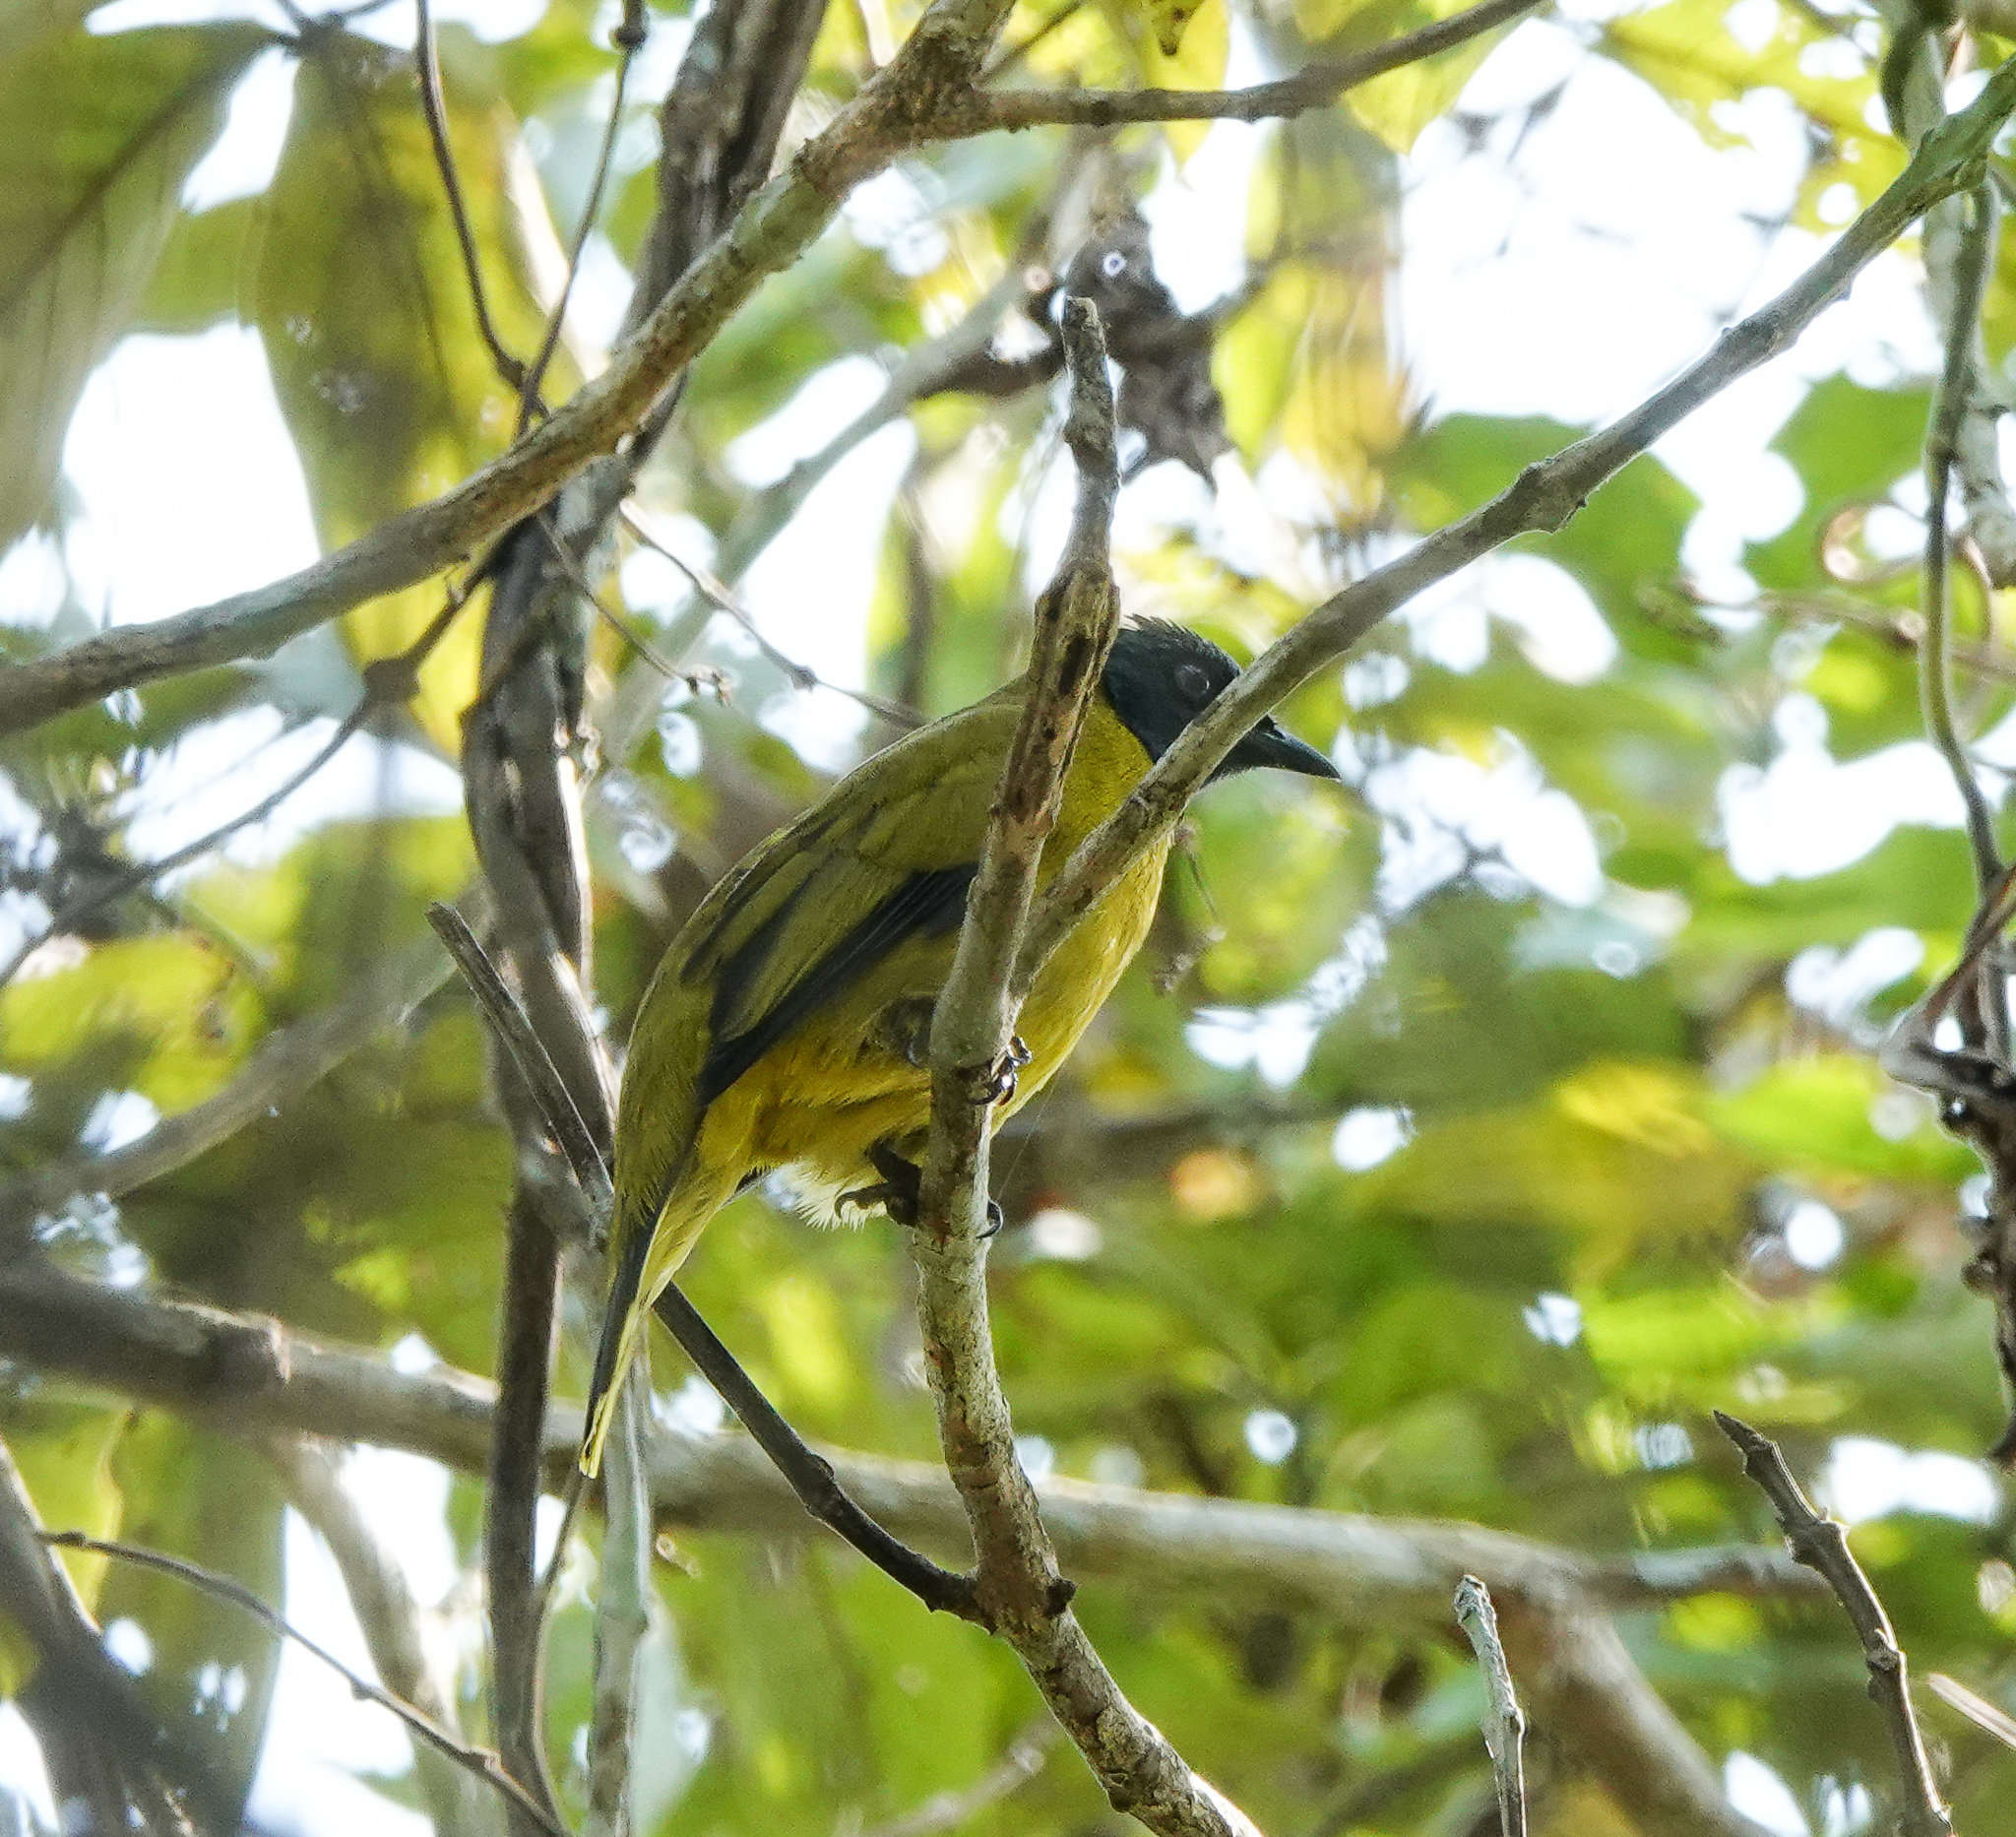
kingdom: Animalia
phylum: Chordata
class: Aves
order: Passeriformes
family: Pycnonotidae
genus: Microtarsus
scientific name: Microtarsus
